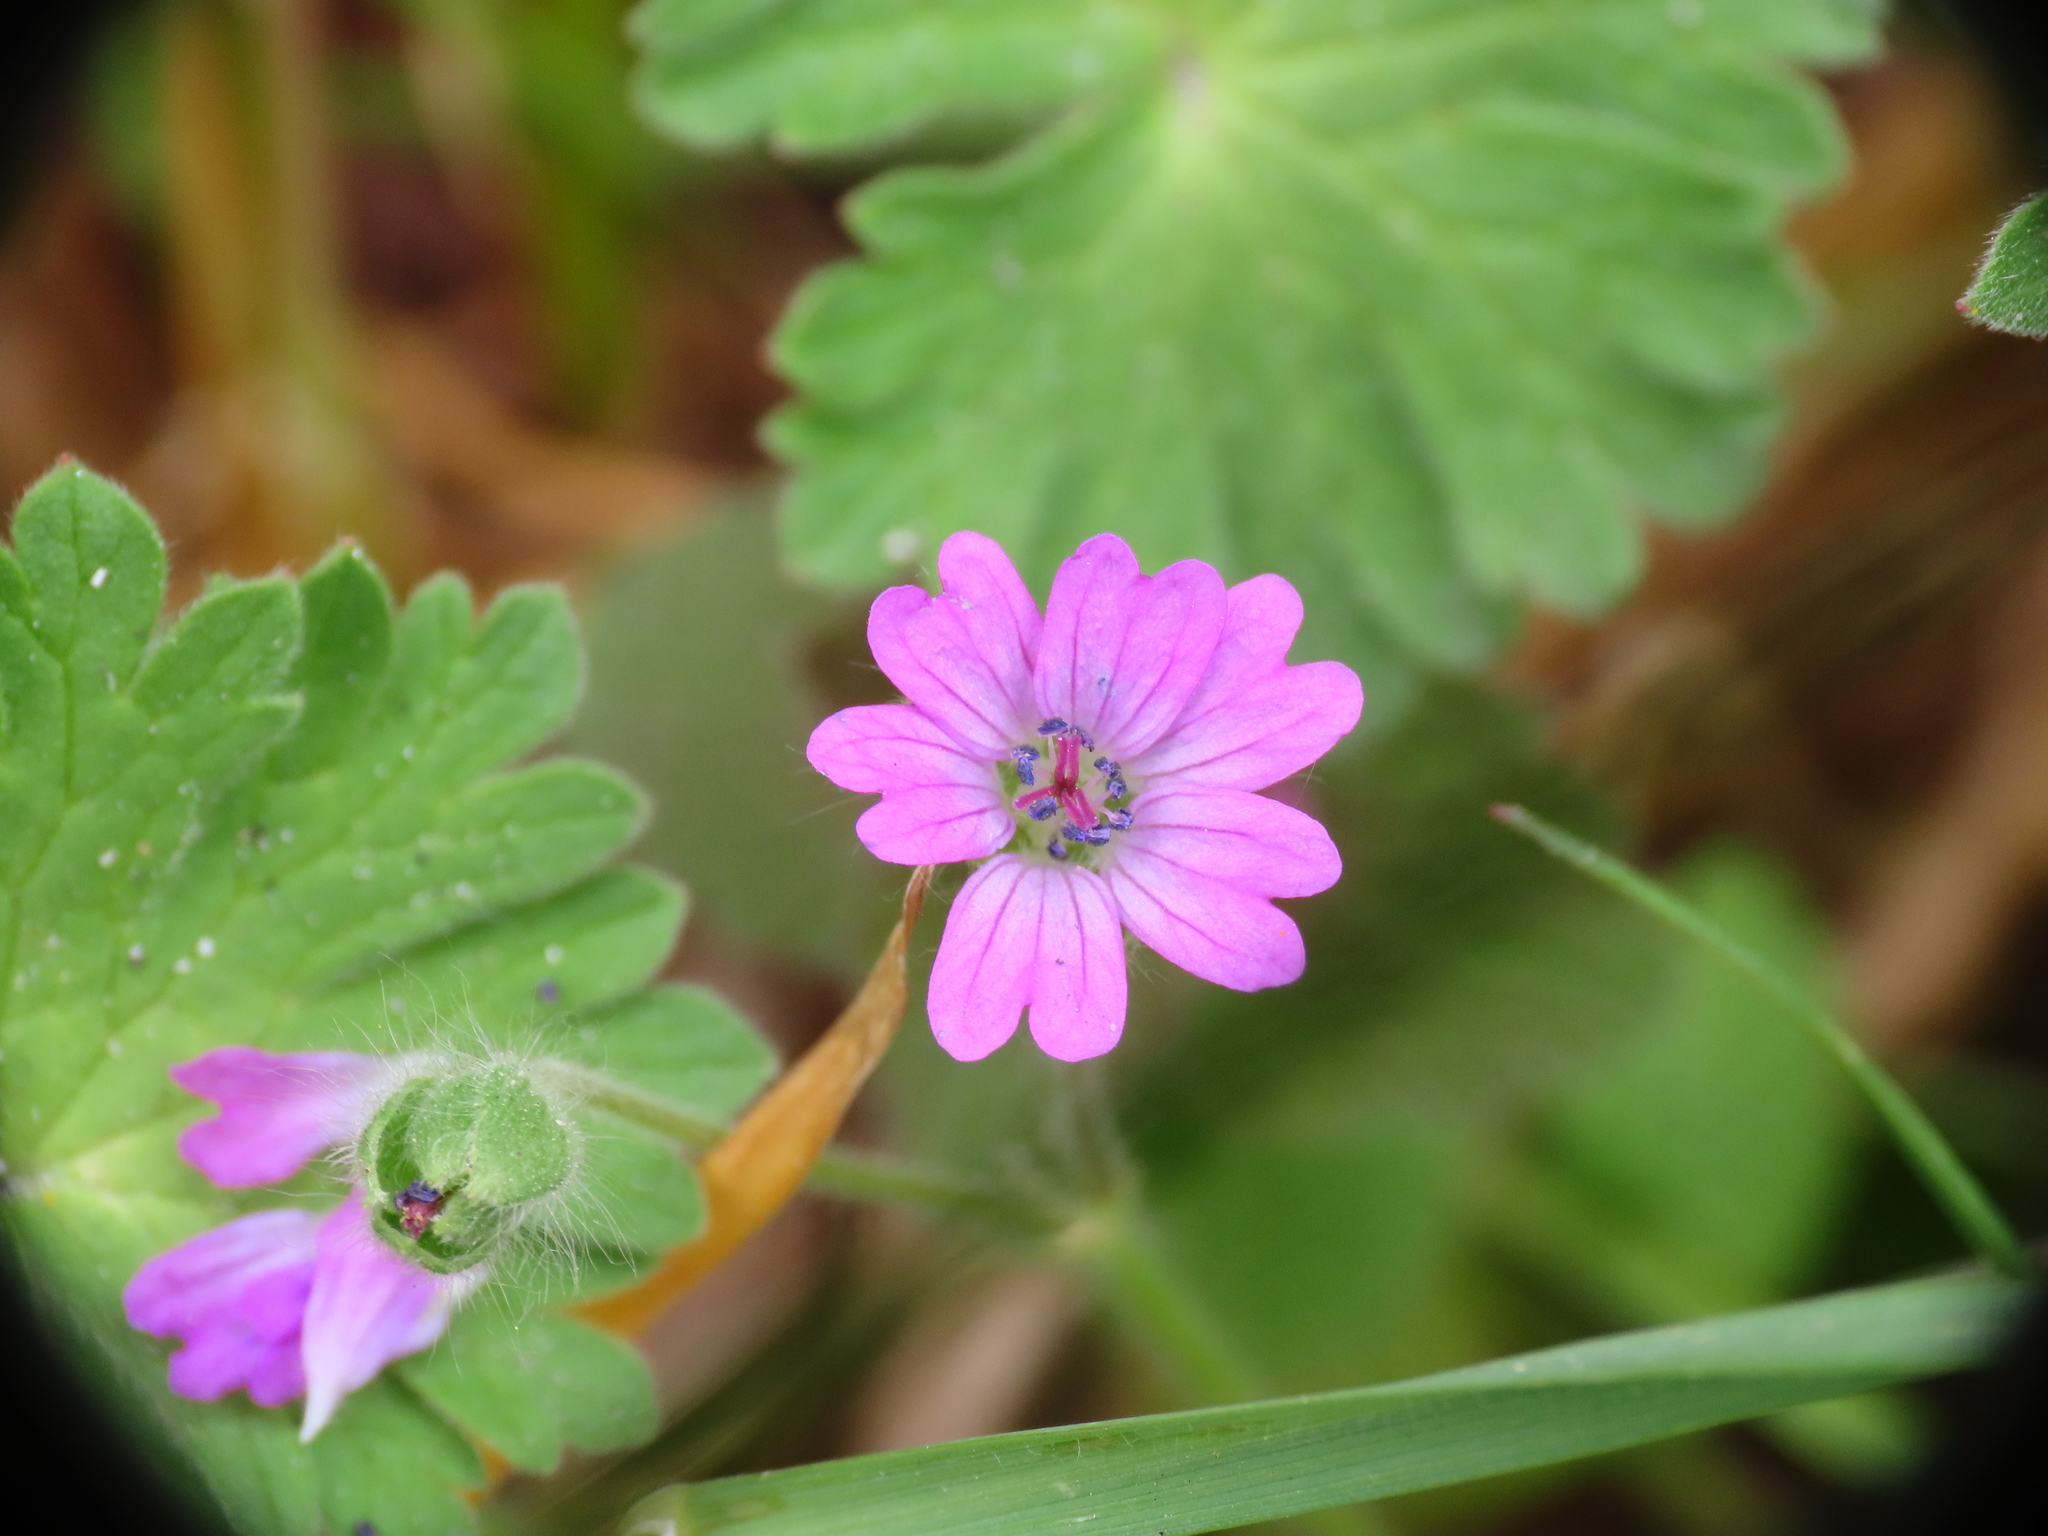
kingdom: Plantae
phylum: Tracheophyta
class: Magnoliopsida
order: Geraniales
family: Geraniaceae
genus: Geranium
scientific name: Geranium molle
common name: Dove's-foot crane's-bill
